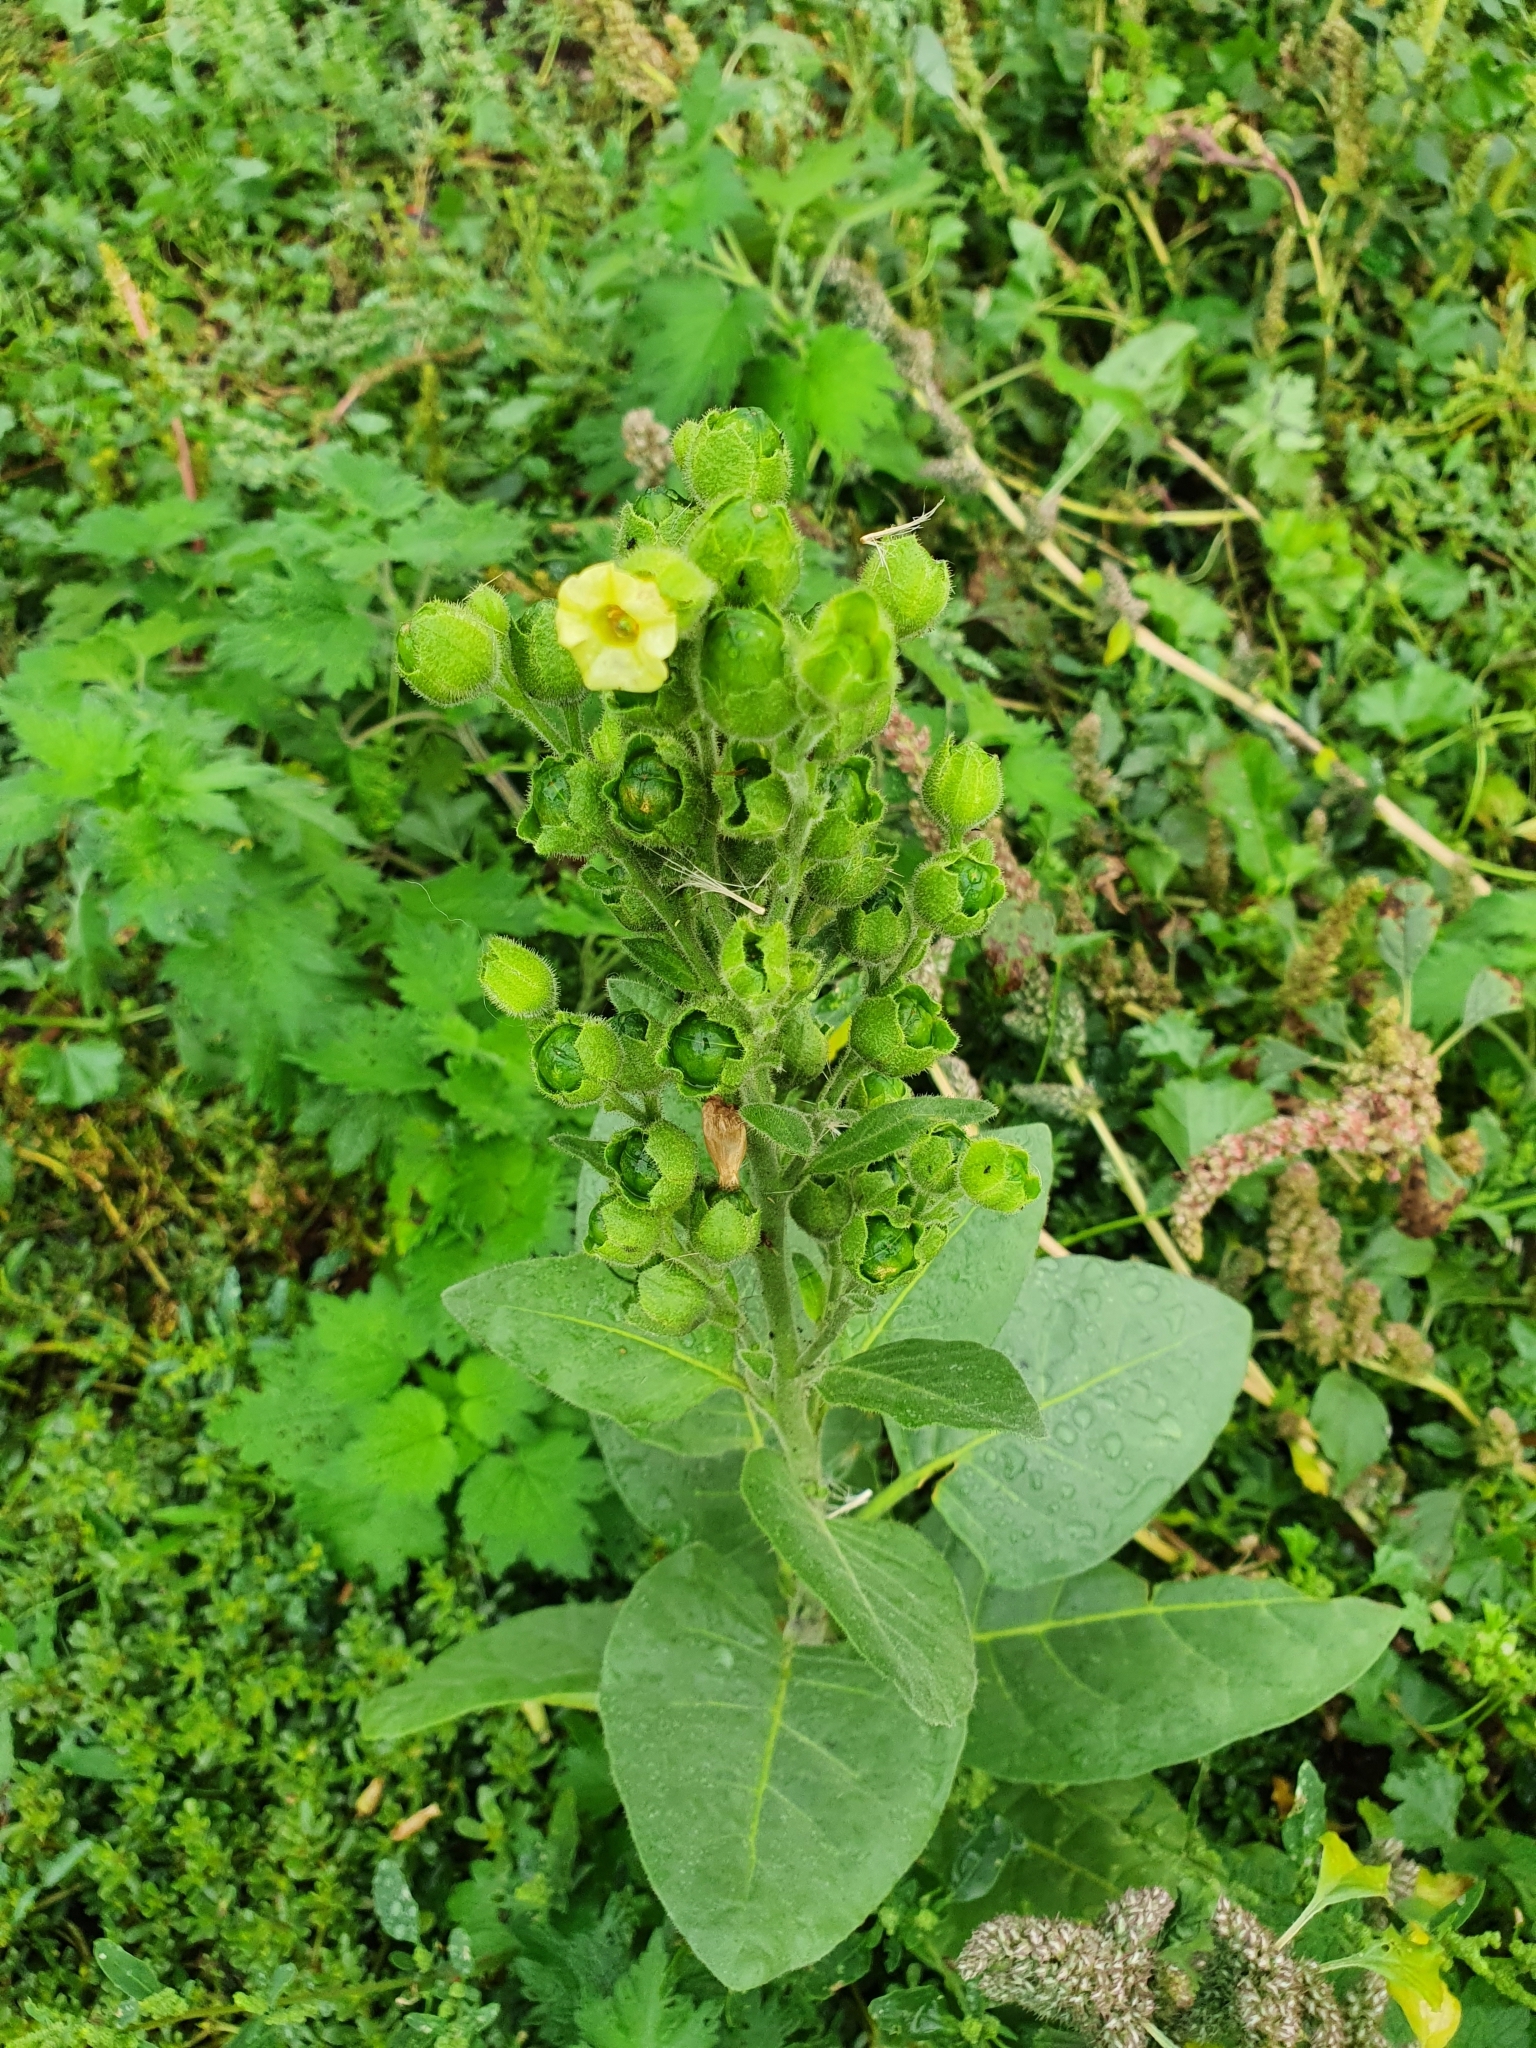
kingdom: Plantae
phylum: Tracheophyta
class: Magnoliopsida
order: Solanales
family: Solanaceae
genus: Nicotiana
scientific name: Nicotiana rustica
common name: Wild tobacco
